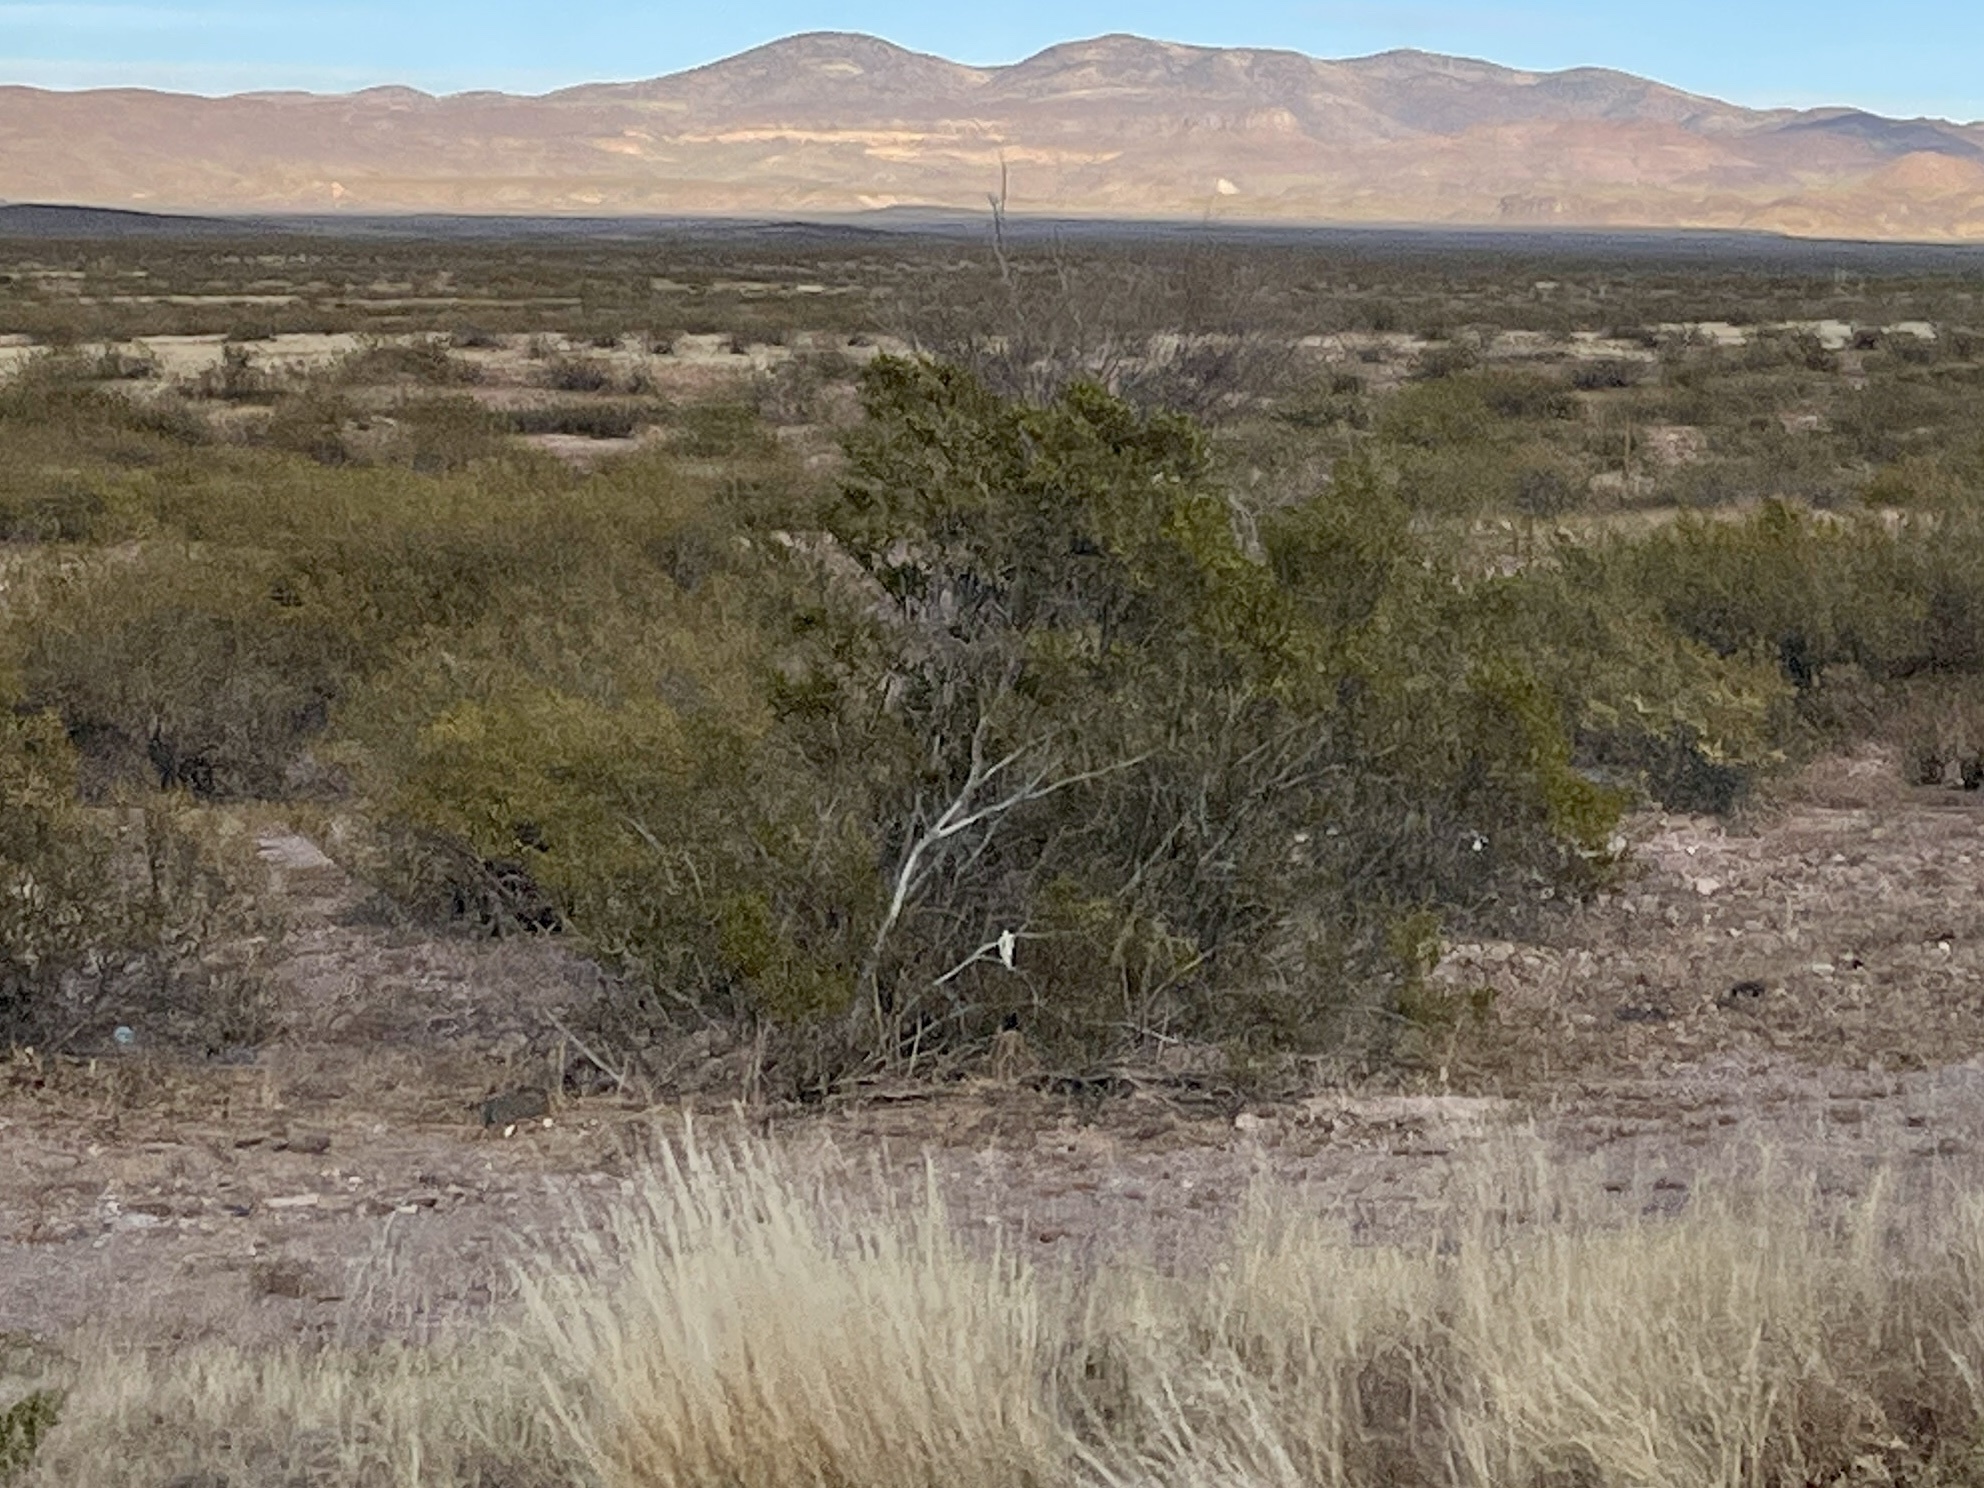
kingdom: Plantae
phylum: Tracheophyta
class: Magnoliopsida
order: Zygophyllales
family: Zygophyllaceae
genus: Larrea
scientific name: Larrea tridentata
